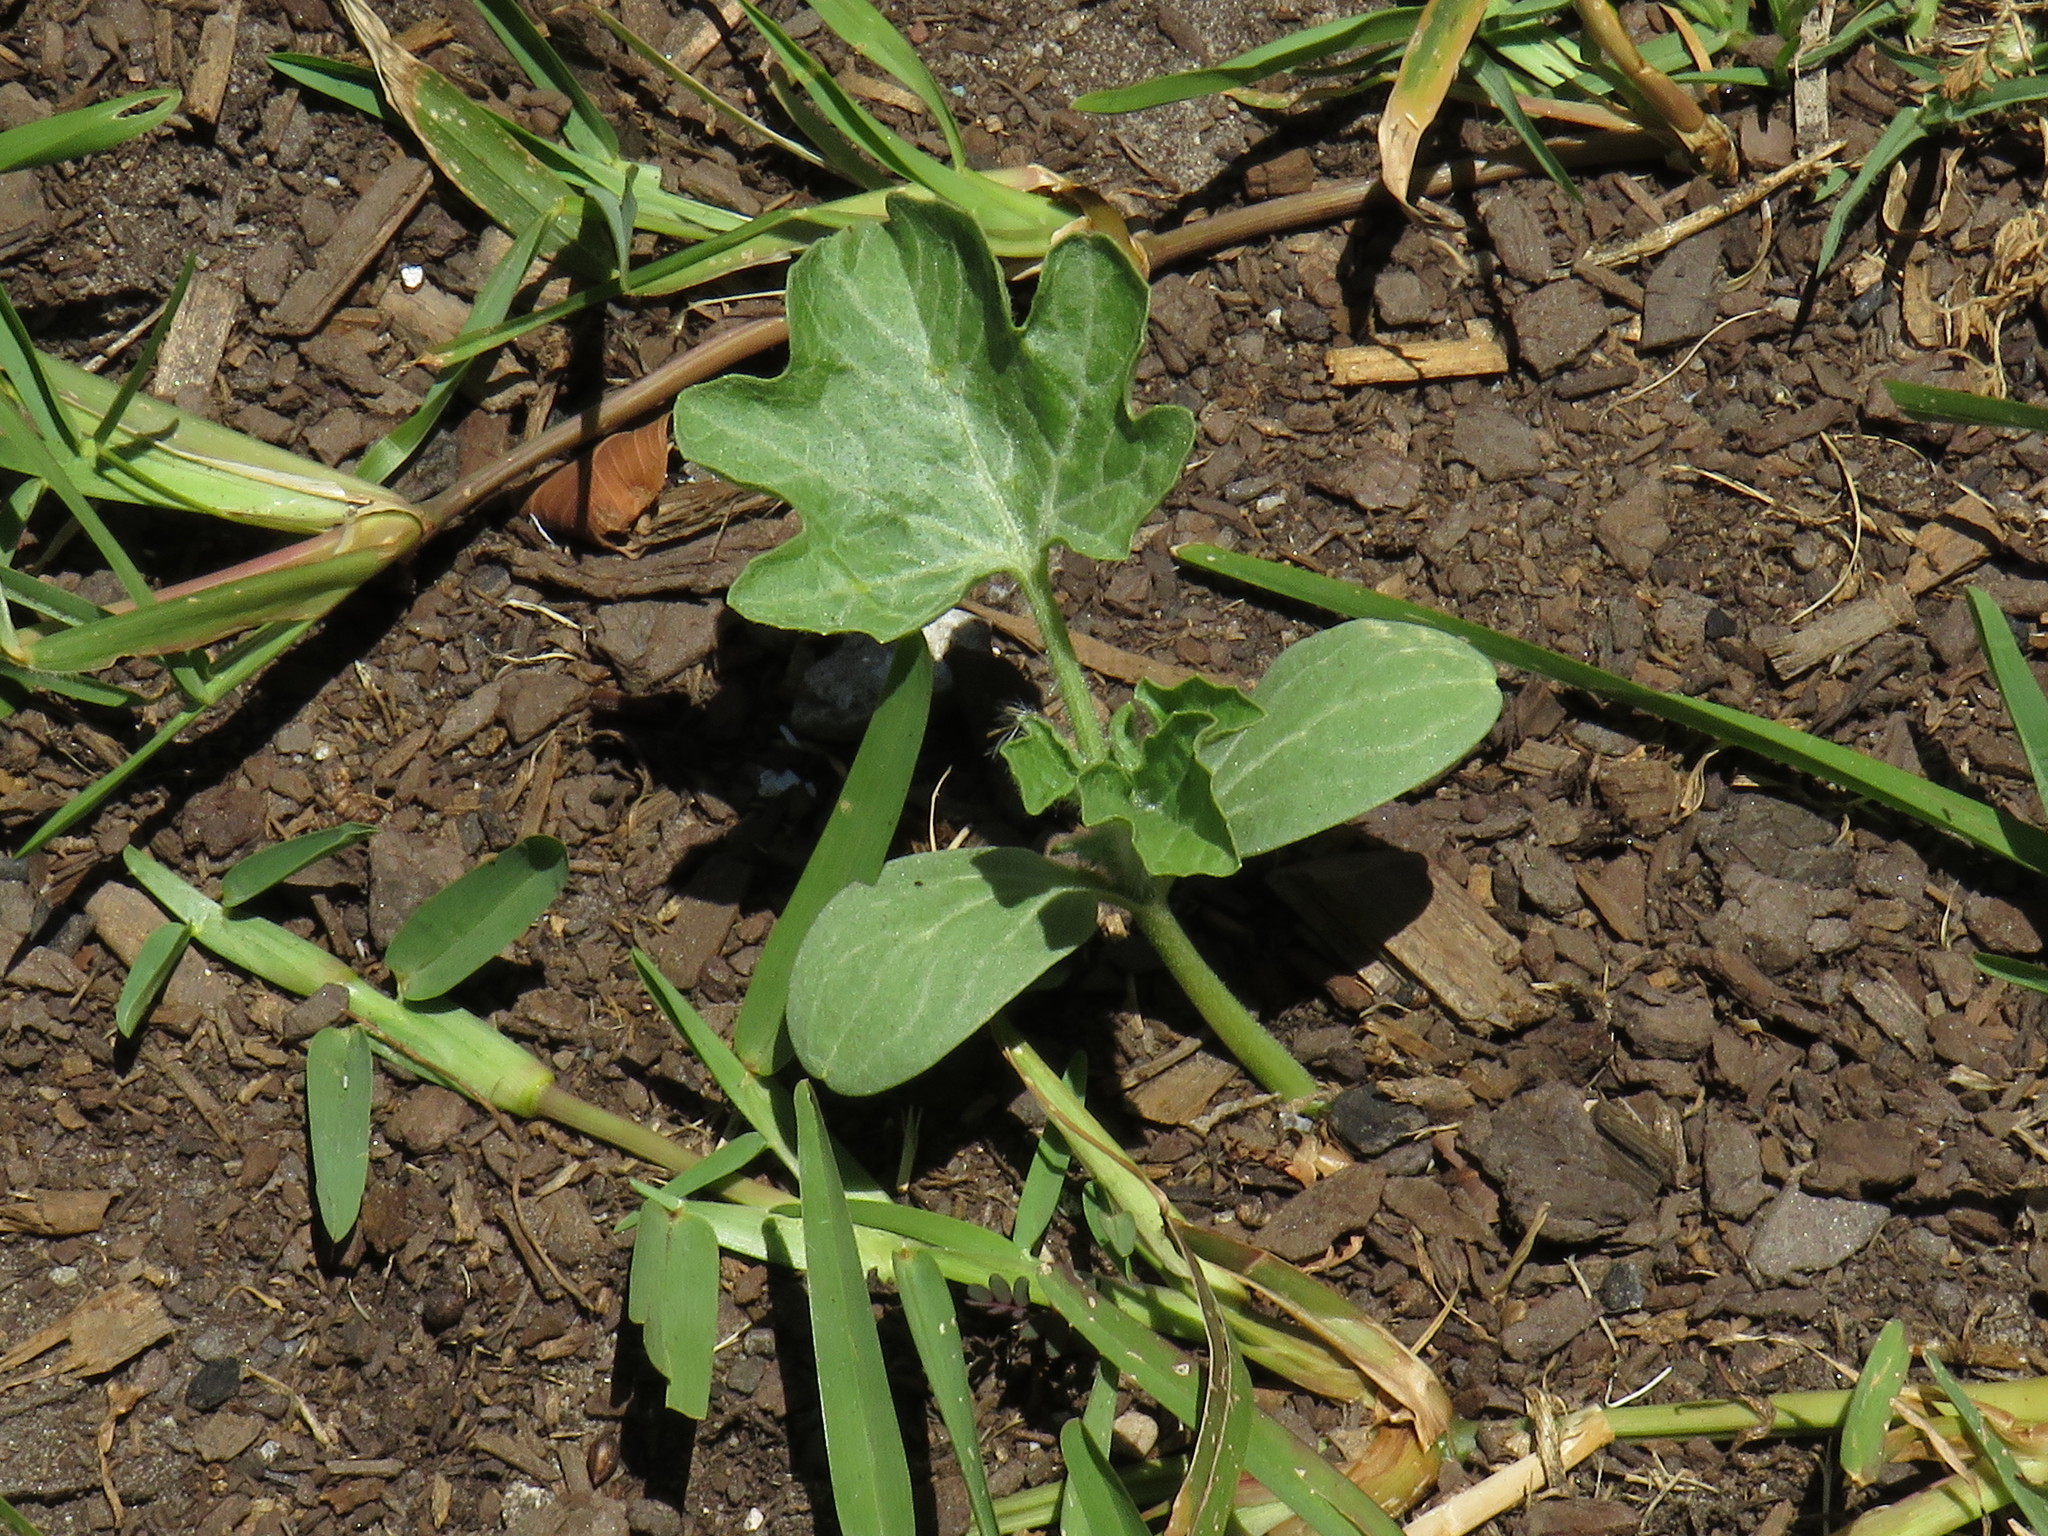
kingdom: Plantae
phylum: Tracheophyta
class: Magnoliopsida
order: Cucurbitales
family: Cucurbitaceae
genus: Citrullus
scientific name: Citrullus lanatus
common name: Watermelon
